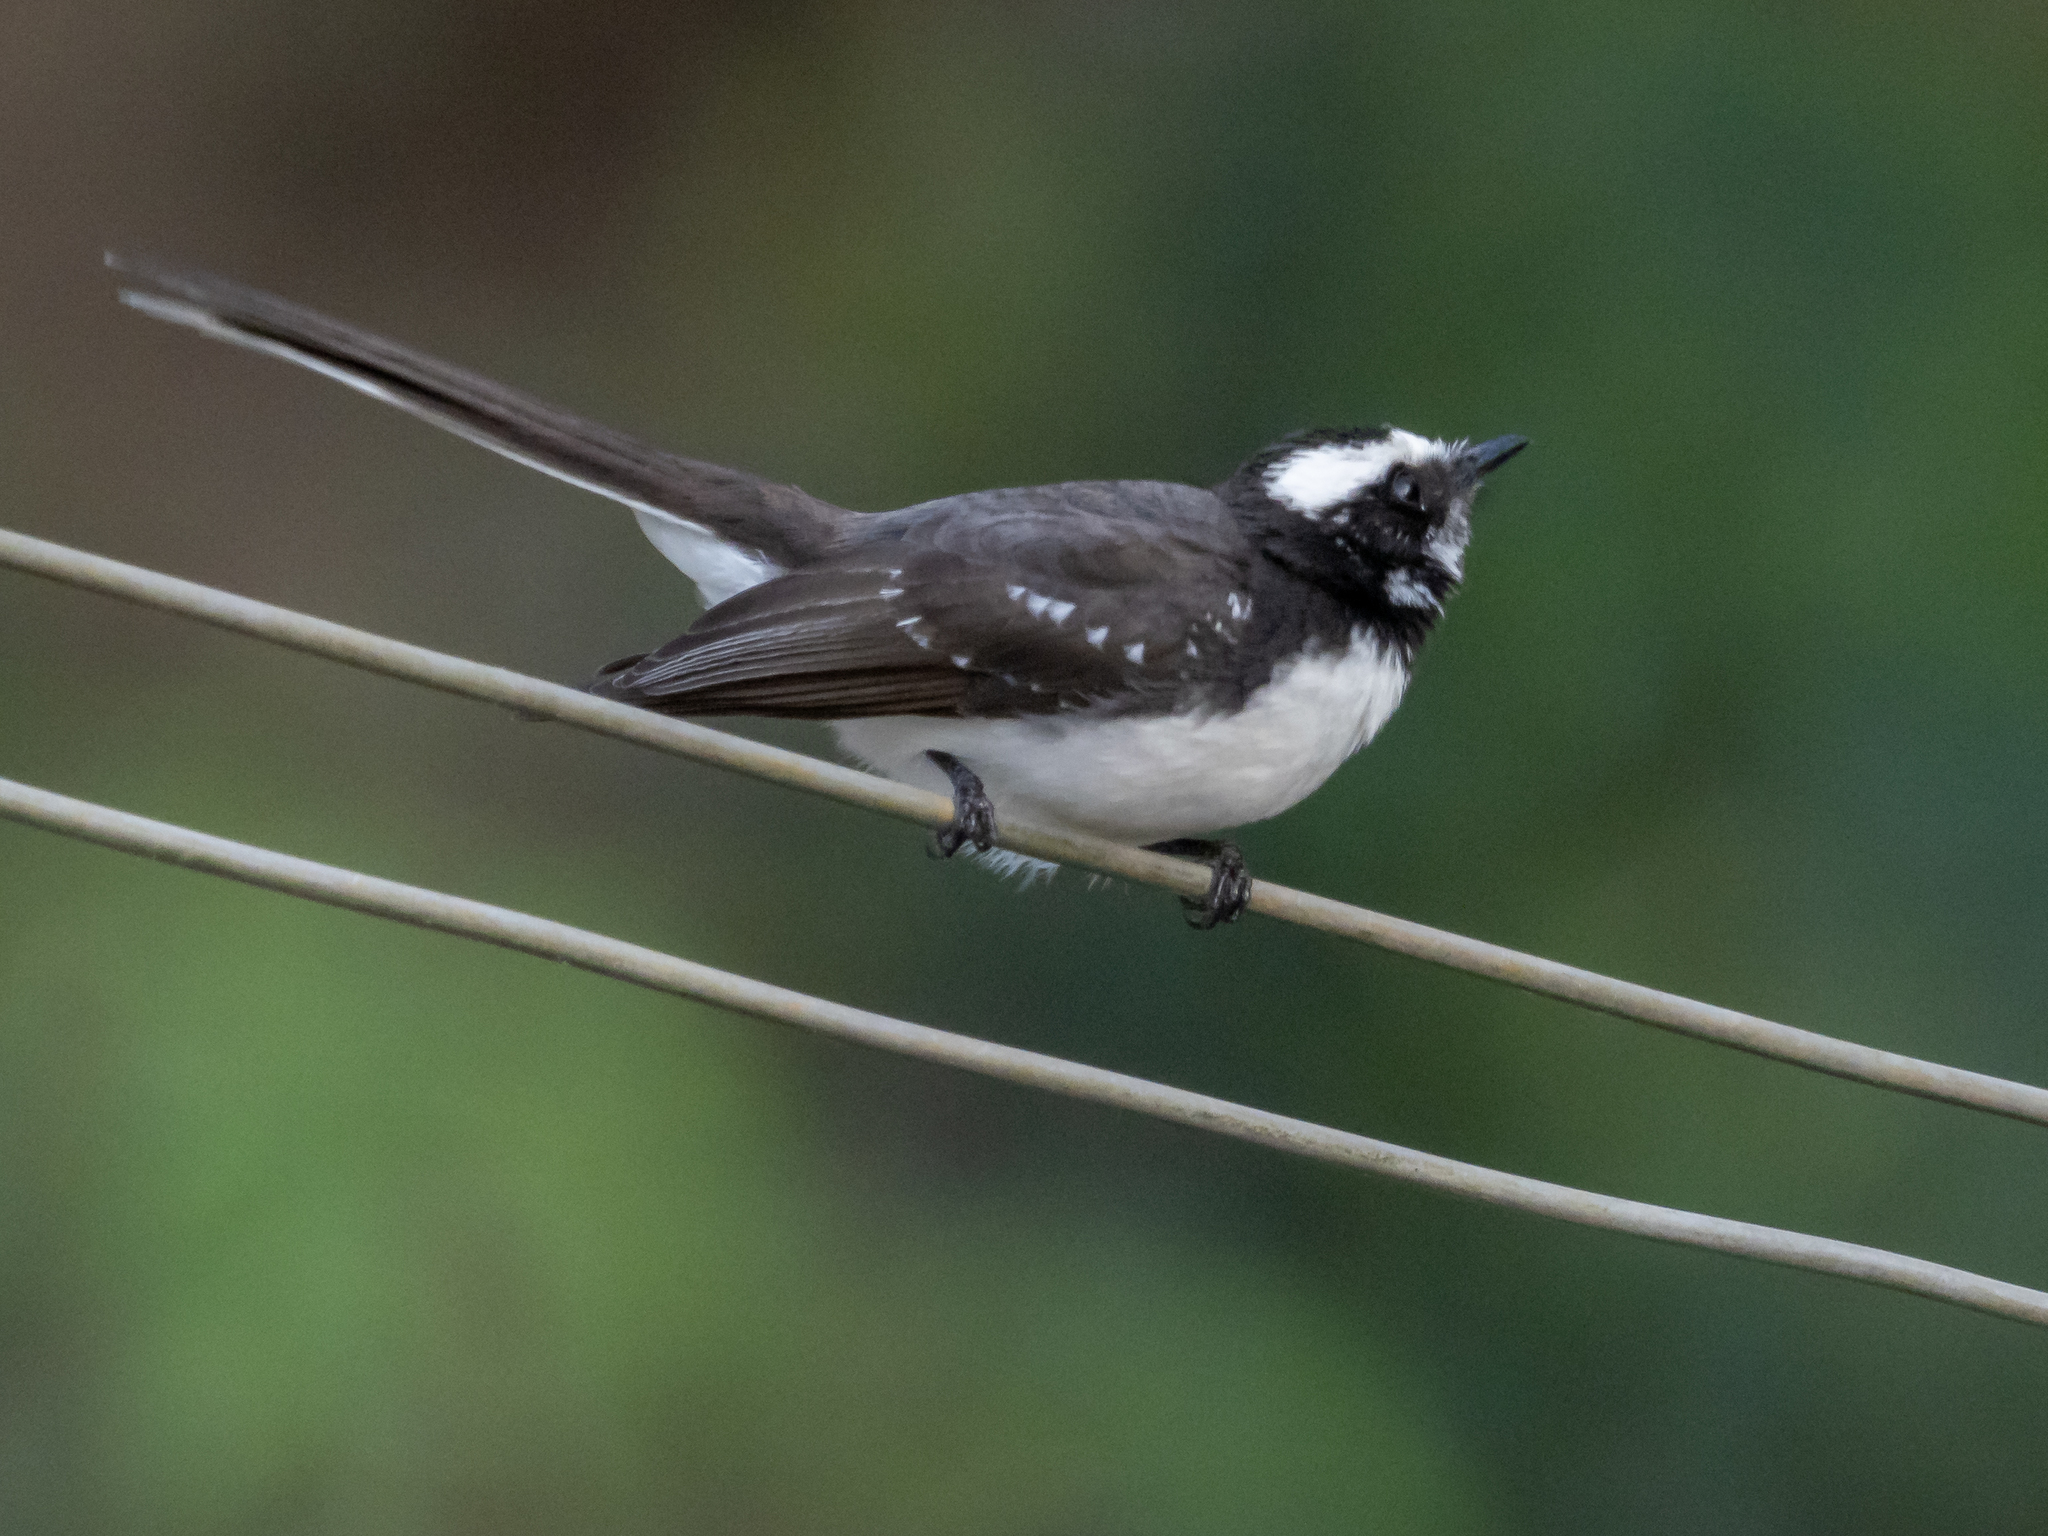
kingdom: Animalia
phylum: Chordata
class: Aves
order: Passeriformes
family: Rhipiduridae
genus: Rhipidura
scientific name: Rhipidura aureola
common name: White-browed fantail
